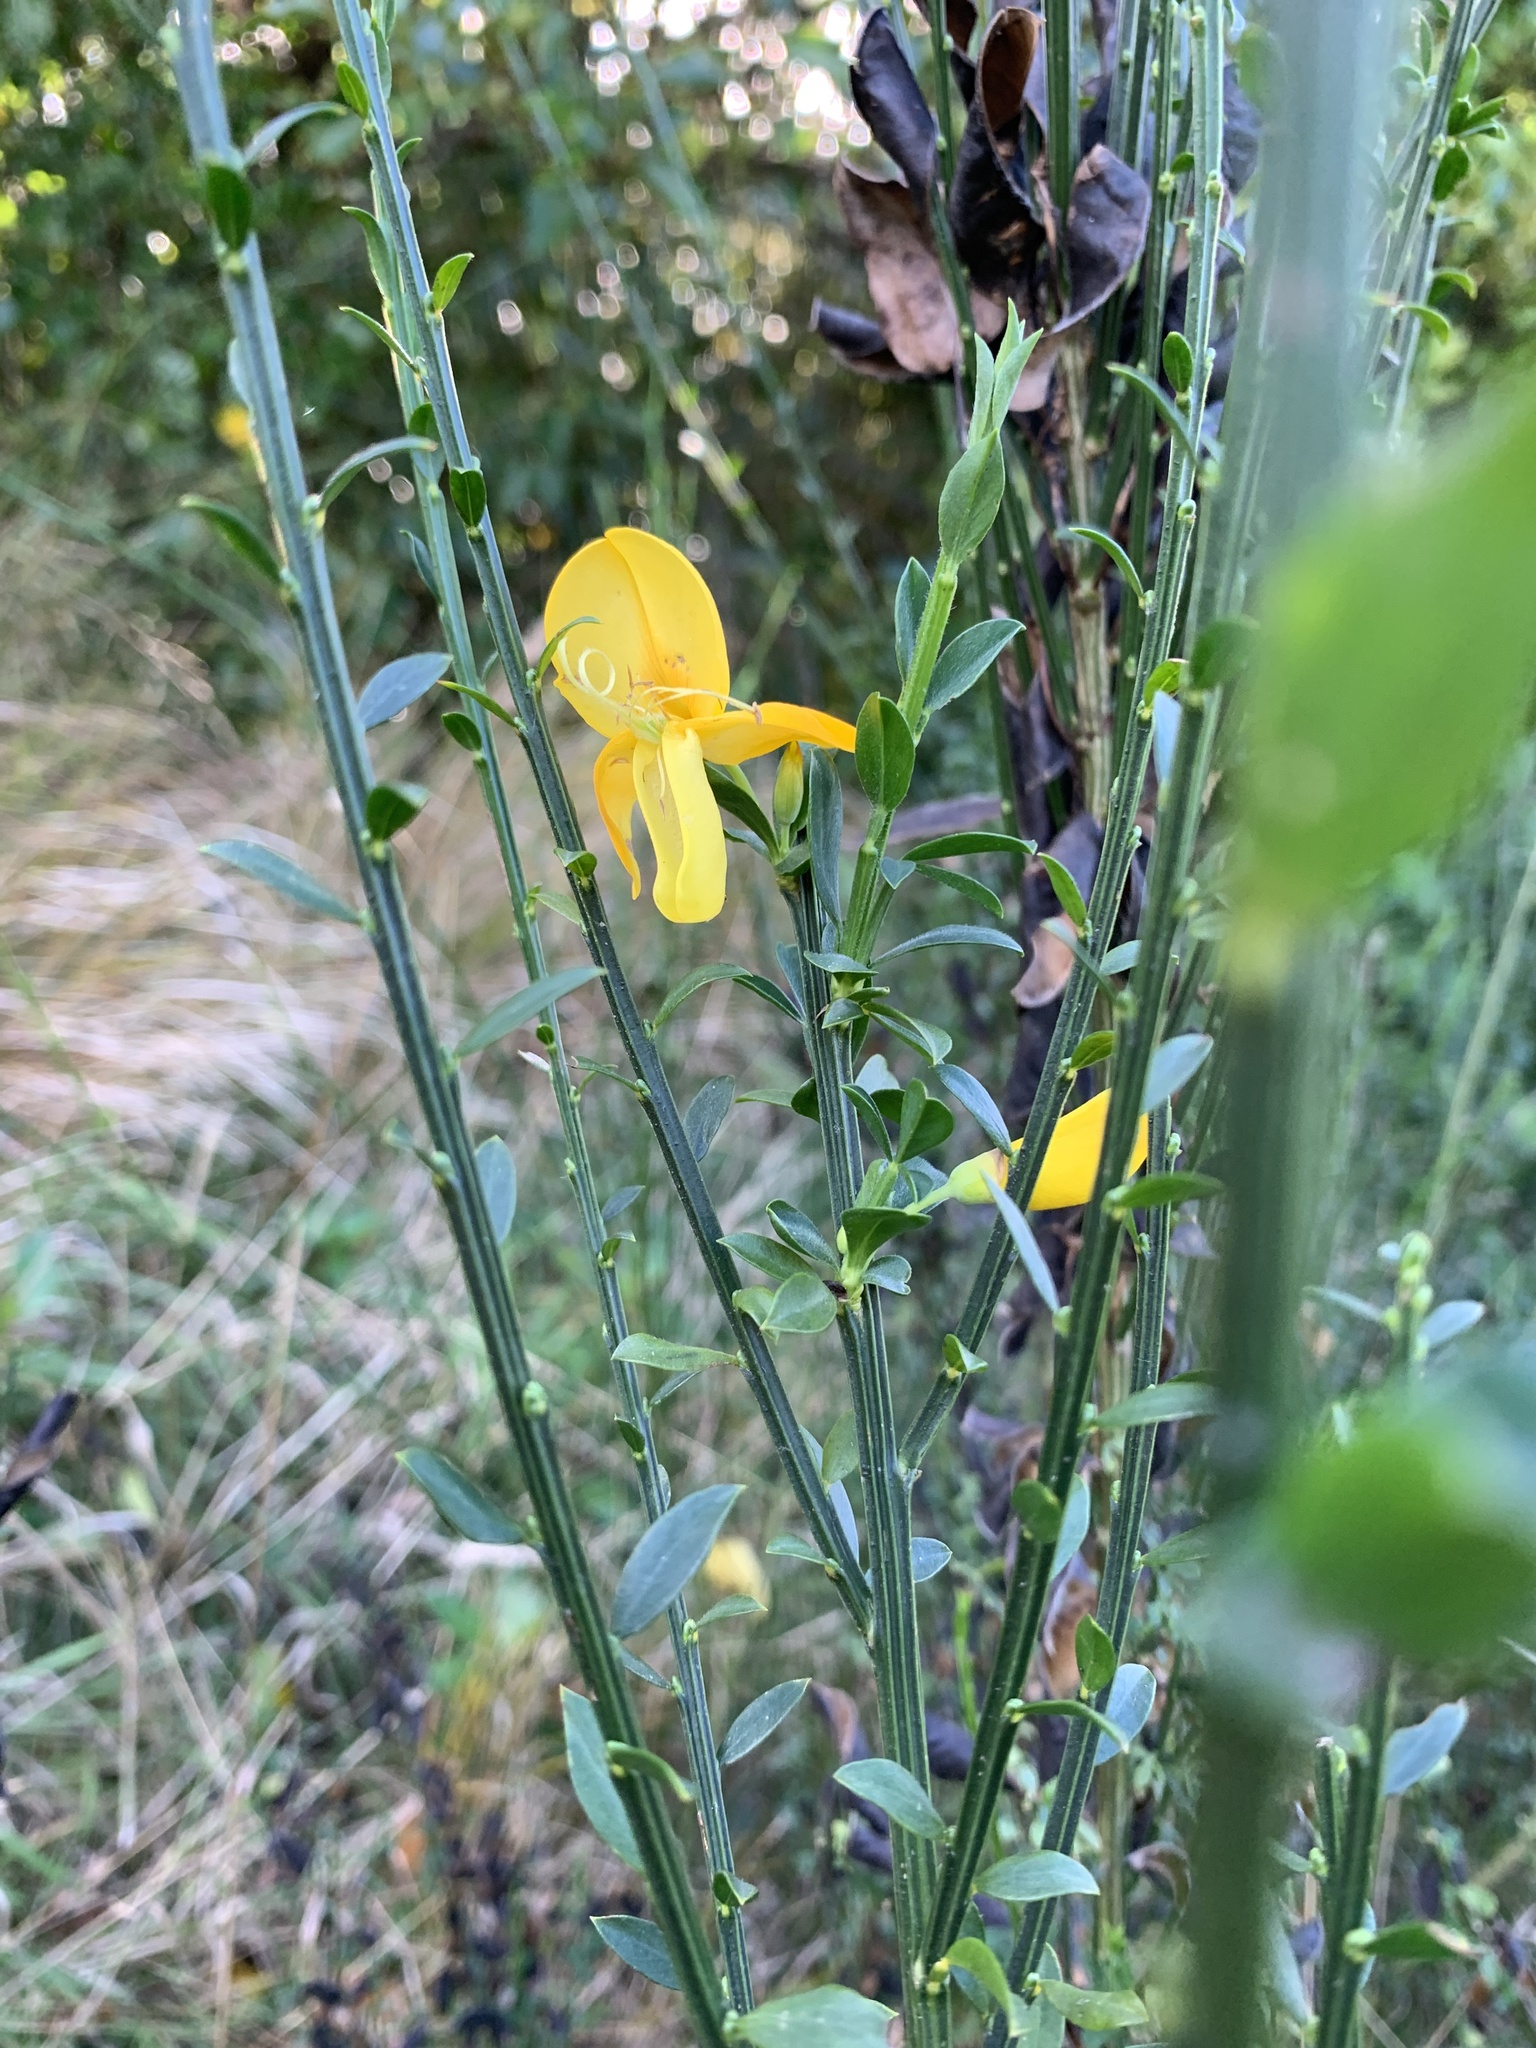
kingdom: Plantae
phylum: Tracheophyta
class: Magnoliopsida
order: Fabales
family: Fabaceae
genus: Cytisus
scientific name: Cytisus scoparius
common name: Scotch broom
